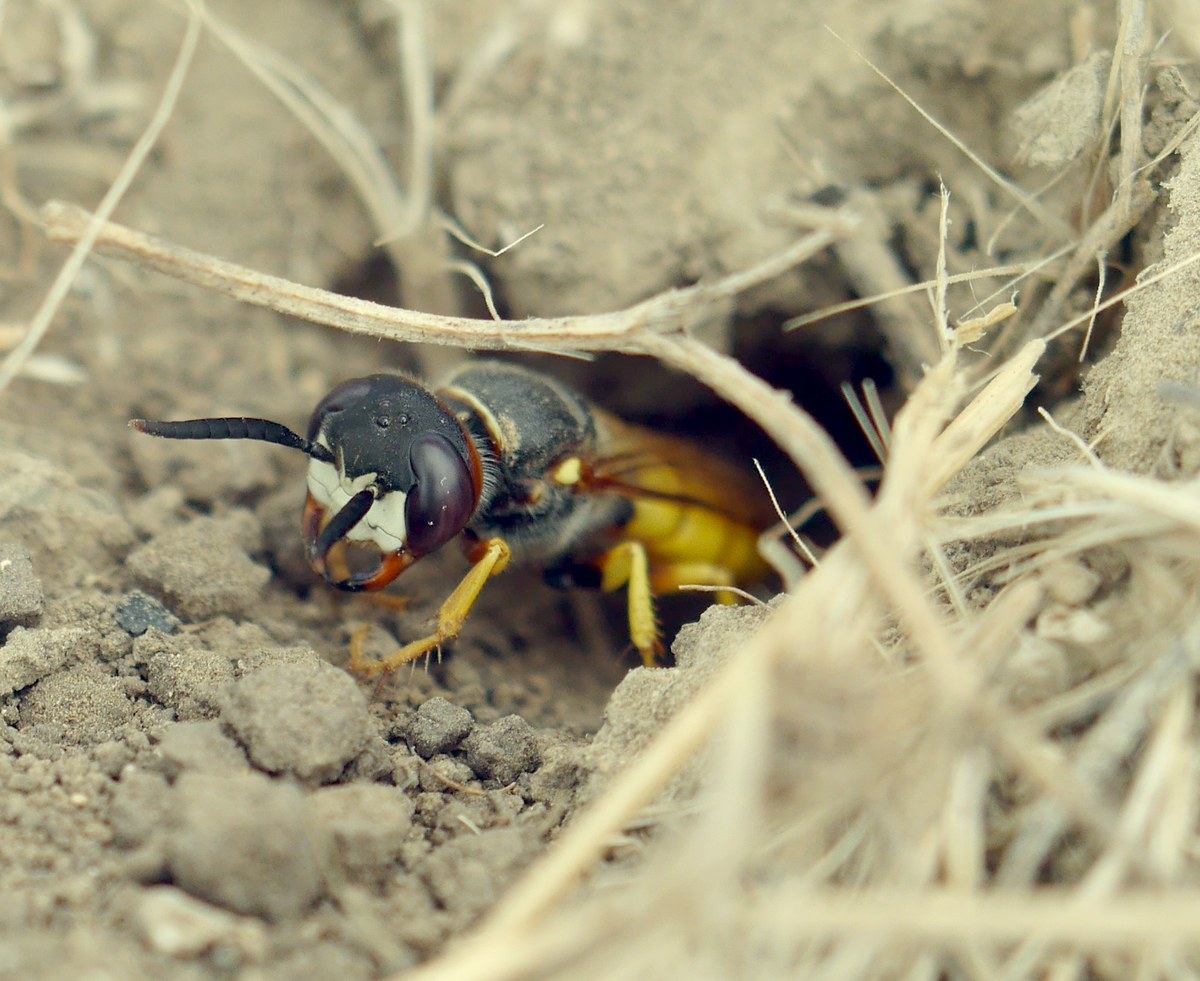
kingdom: Animalia
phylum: Arthropoda
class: Insecta
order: Hymenoptera
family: Crabronidae
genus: Philanthus
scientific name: Philanthus triangulum
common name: Bee wolf
